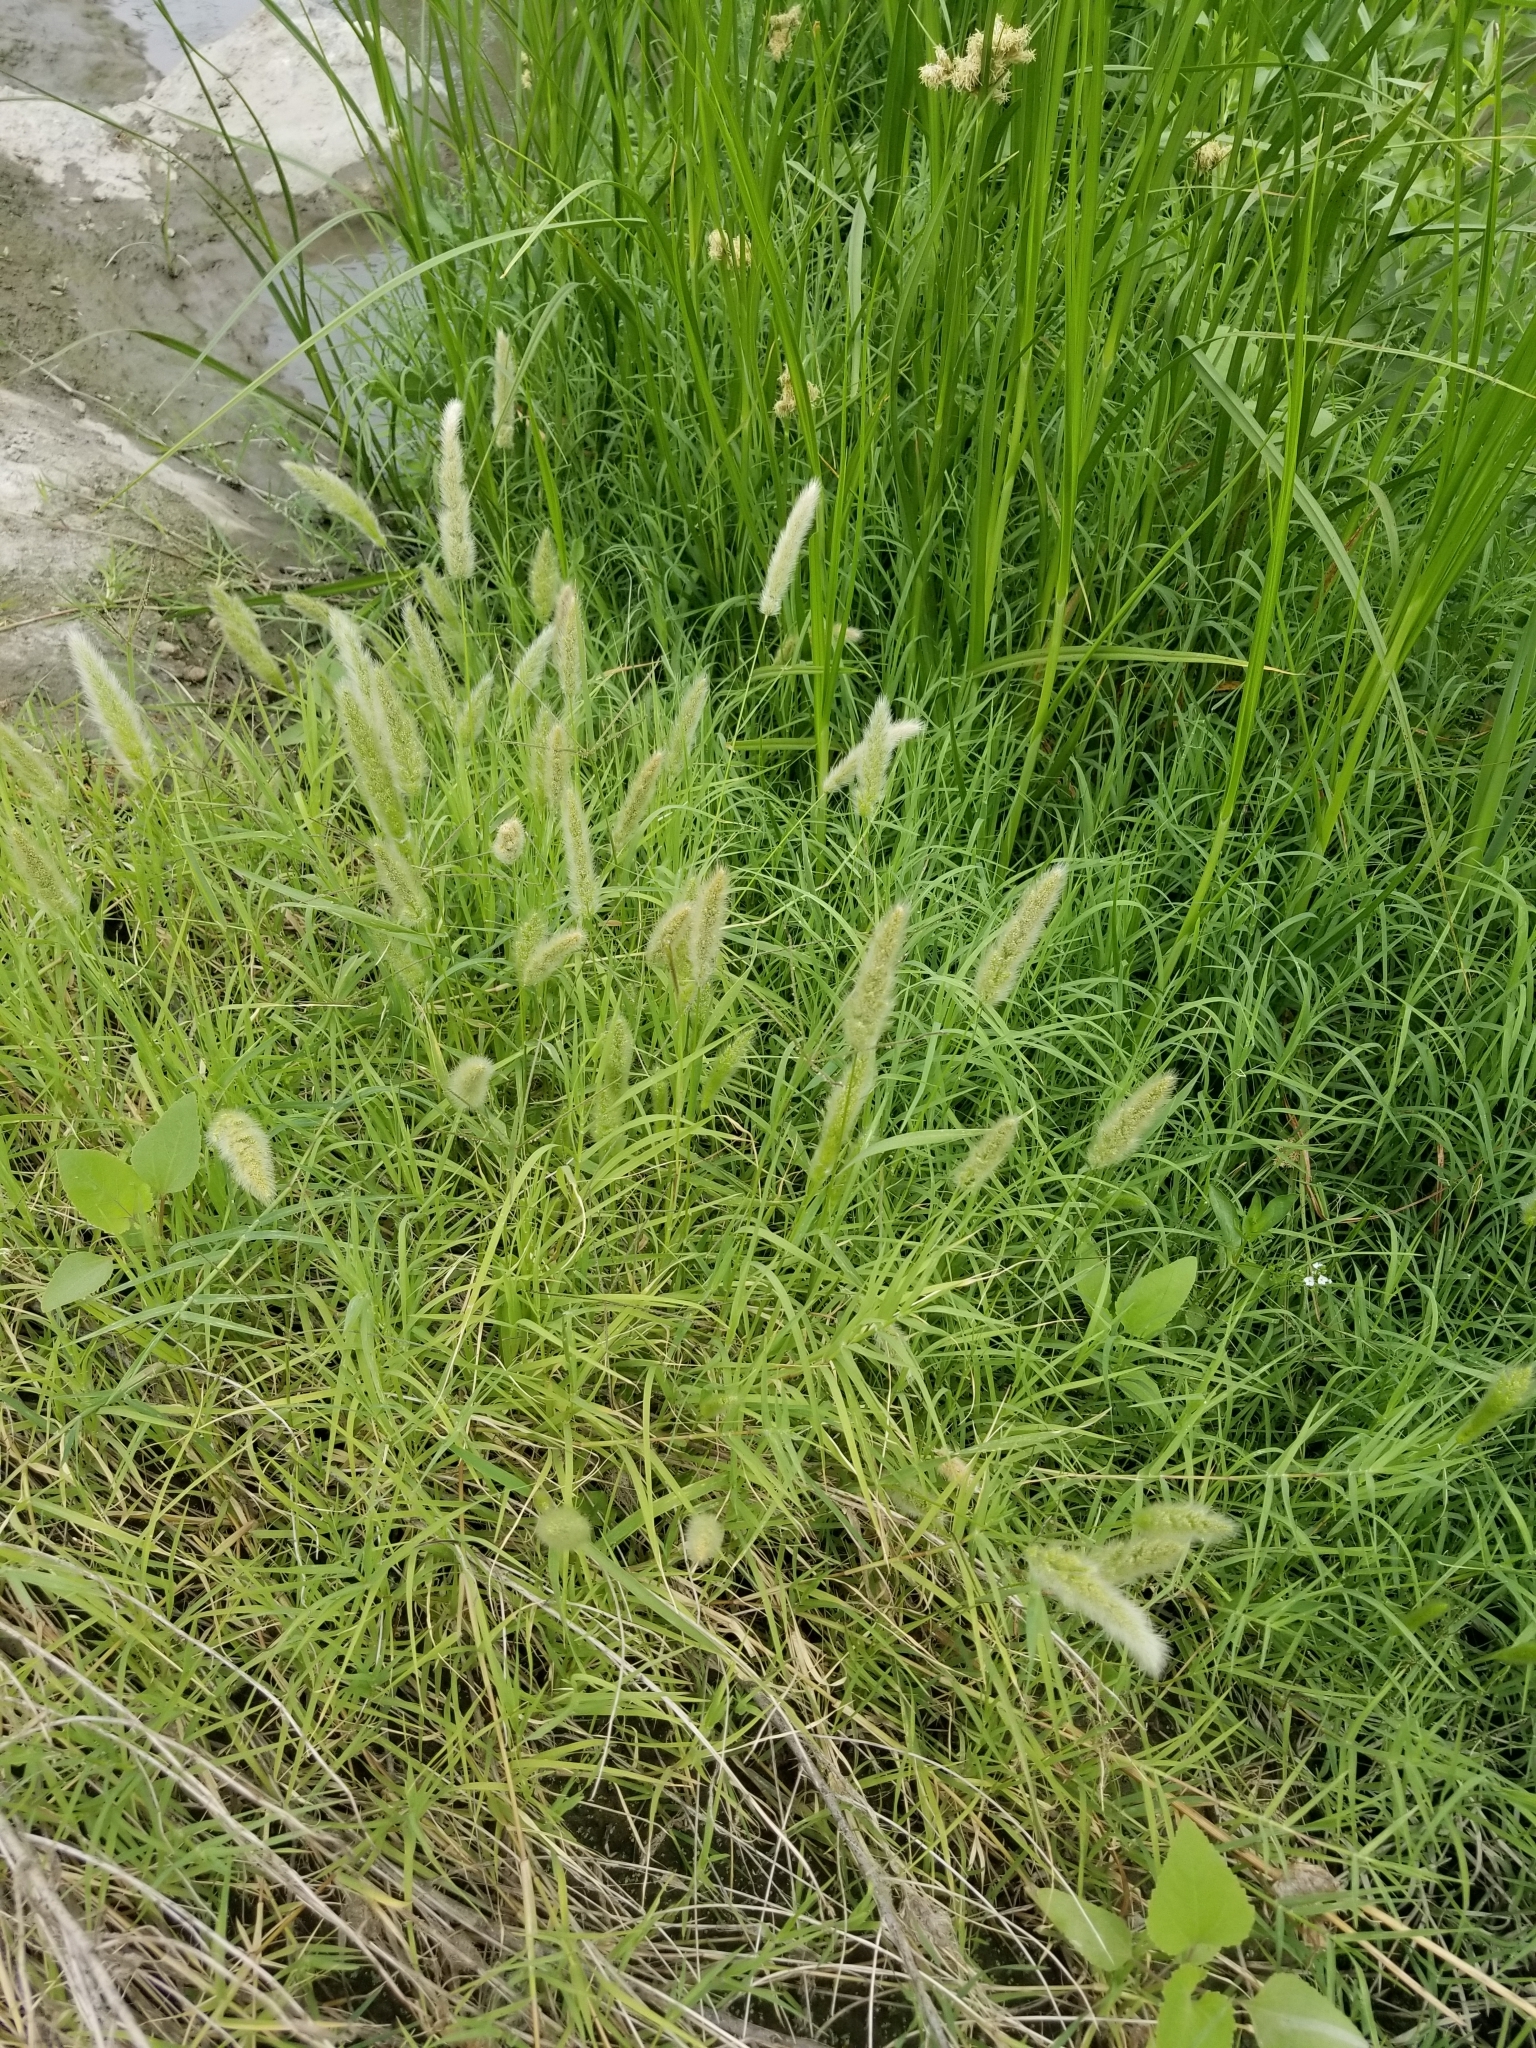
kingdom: Plantae
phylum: Tracheophyta
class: Liliopsida
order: Poales
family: Poaceae
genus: Polypogon
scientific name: Polypogon monspeliensis
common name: Annual rabbitsfoot grass
